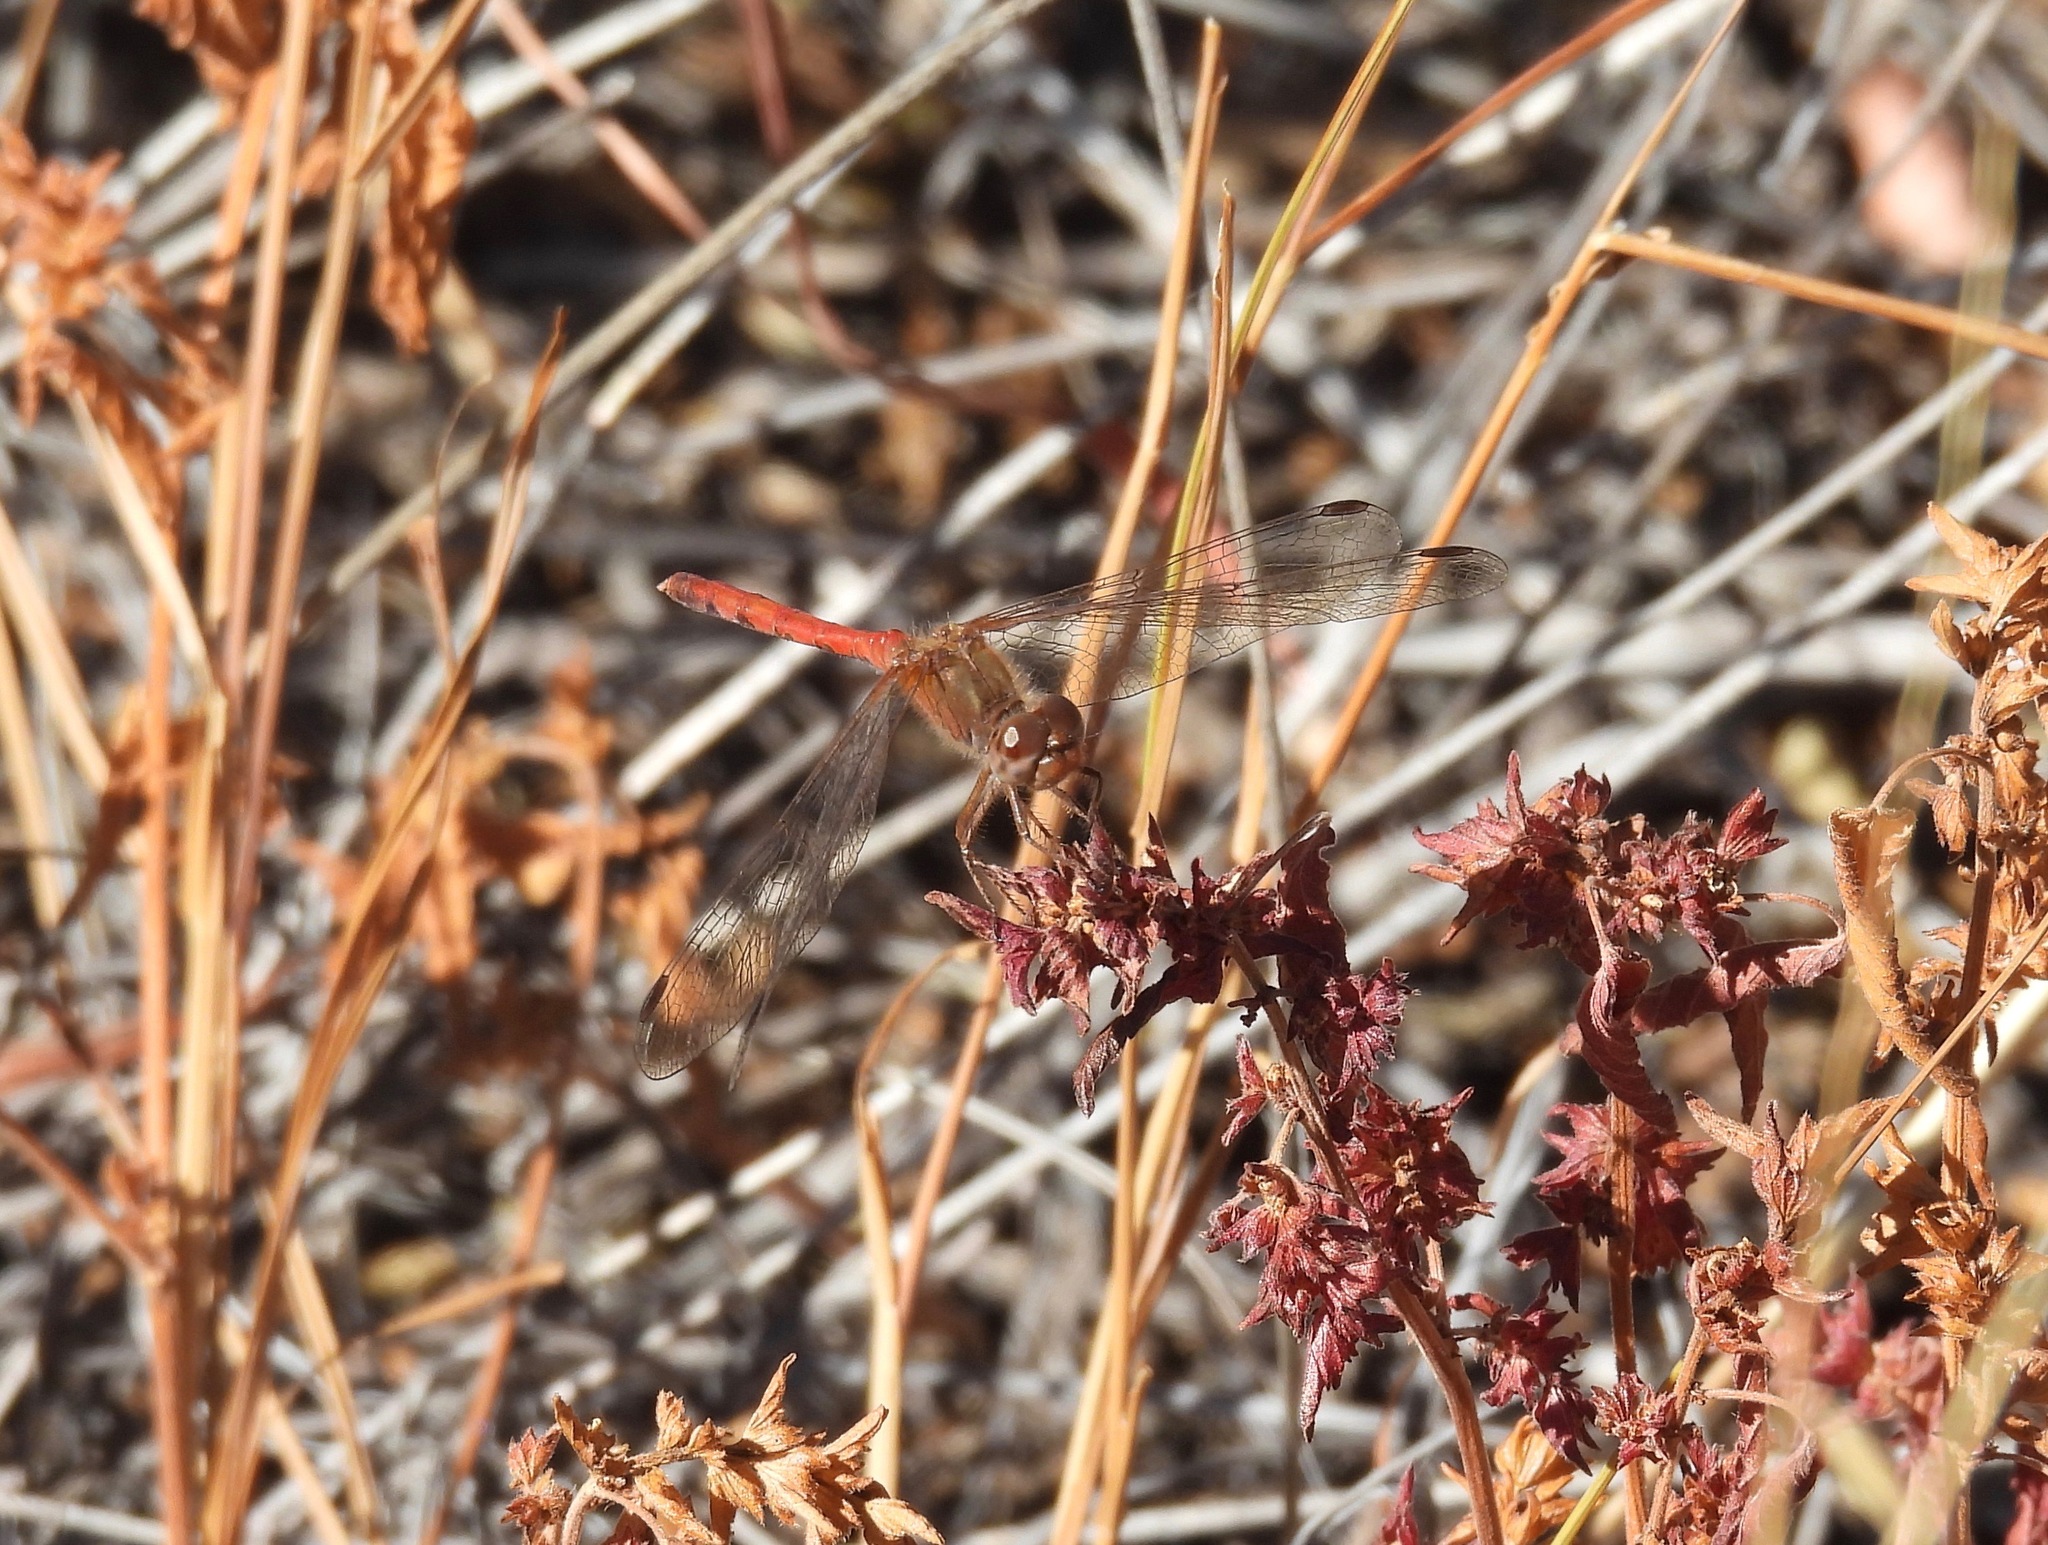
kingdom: Animalia
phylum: Arthropoda
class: Insecta
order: Odonata
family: Libellulidae
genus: Sympetrum
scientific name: Sympetrum vicinum
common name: Autumn meadowhawk
